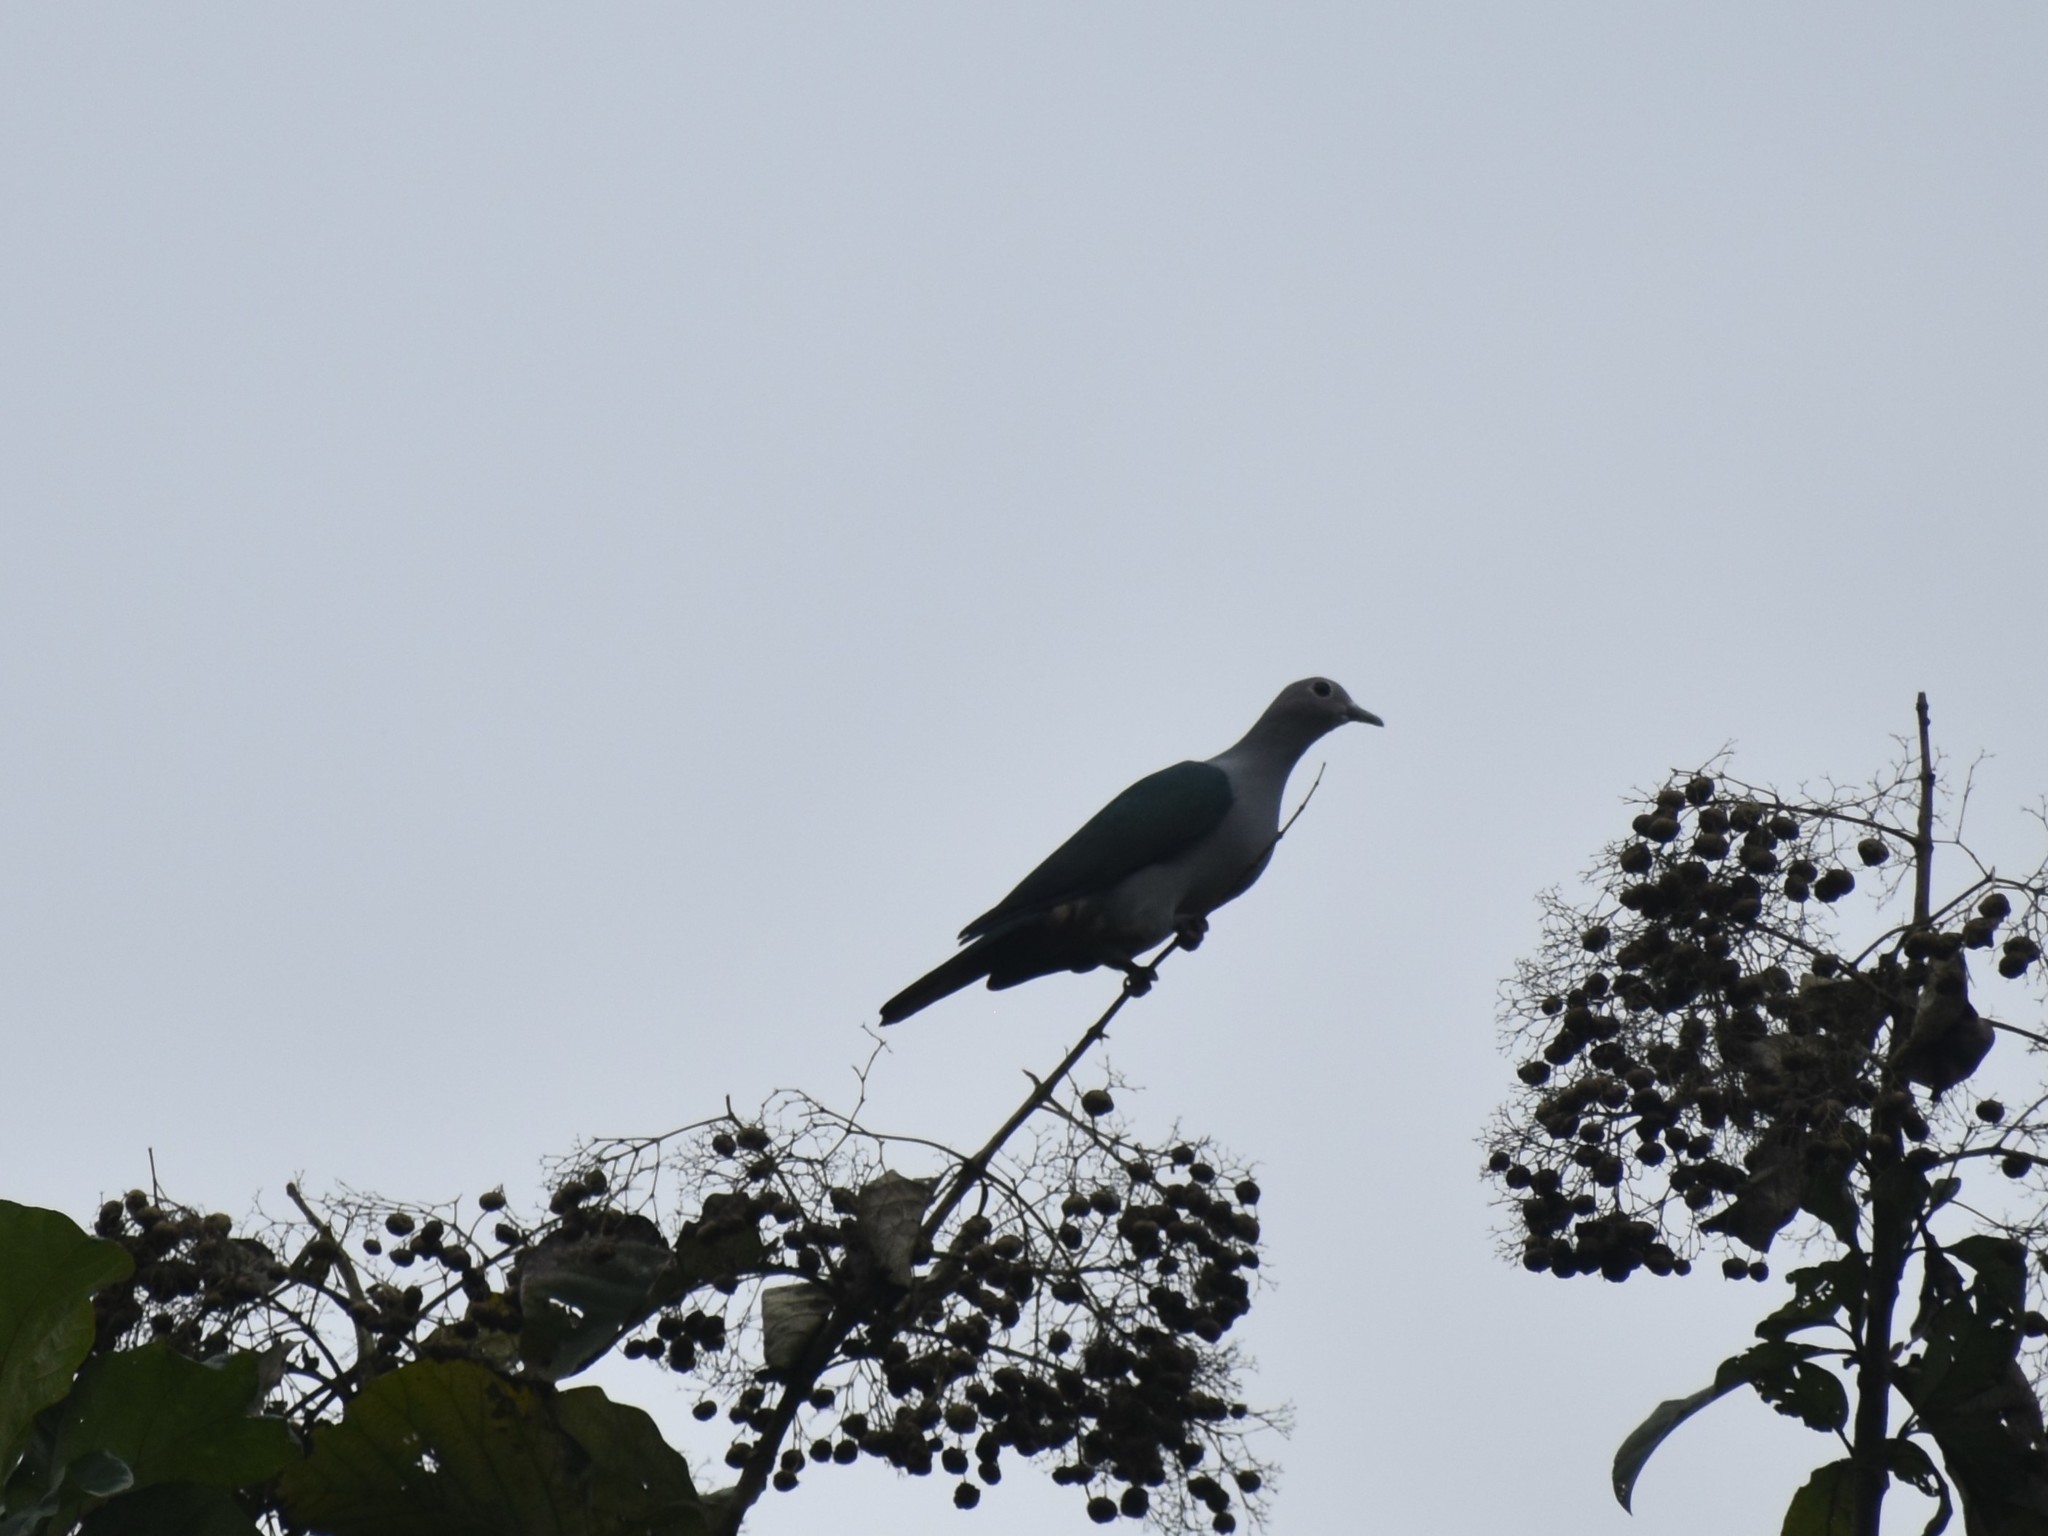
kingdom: Animalia
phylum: Chordata
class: Aves
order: Columbiformes
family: Columbidae
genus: Ducula
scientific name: Ducula aenea
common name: Green imperial pigeon
